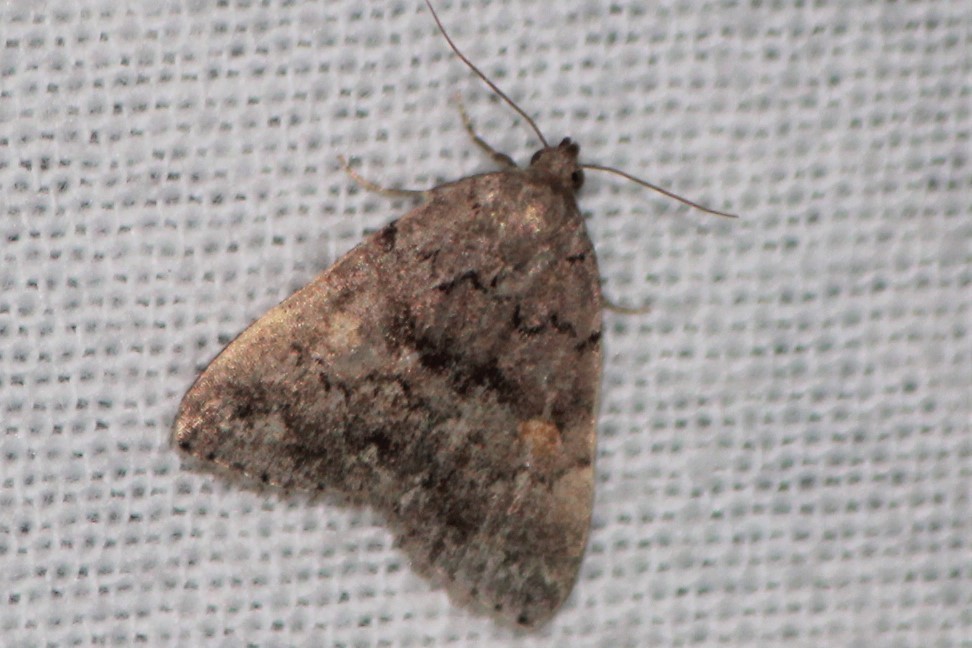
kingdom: Animalia
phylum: Arthropoda
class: Insecta
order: Lepidoptera
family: Erebidae
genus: Idia
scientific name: Idia aemula
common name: Common idia moth
